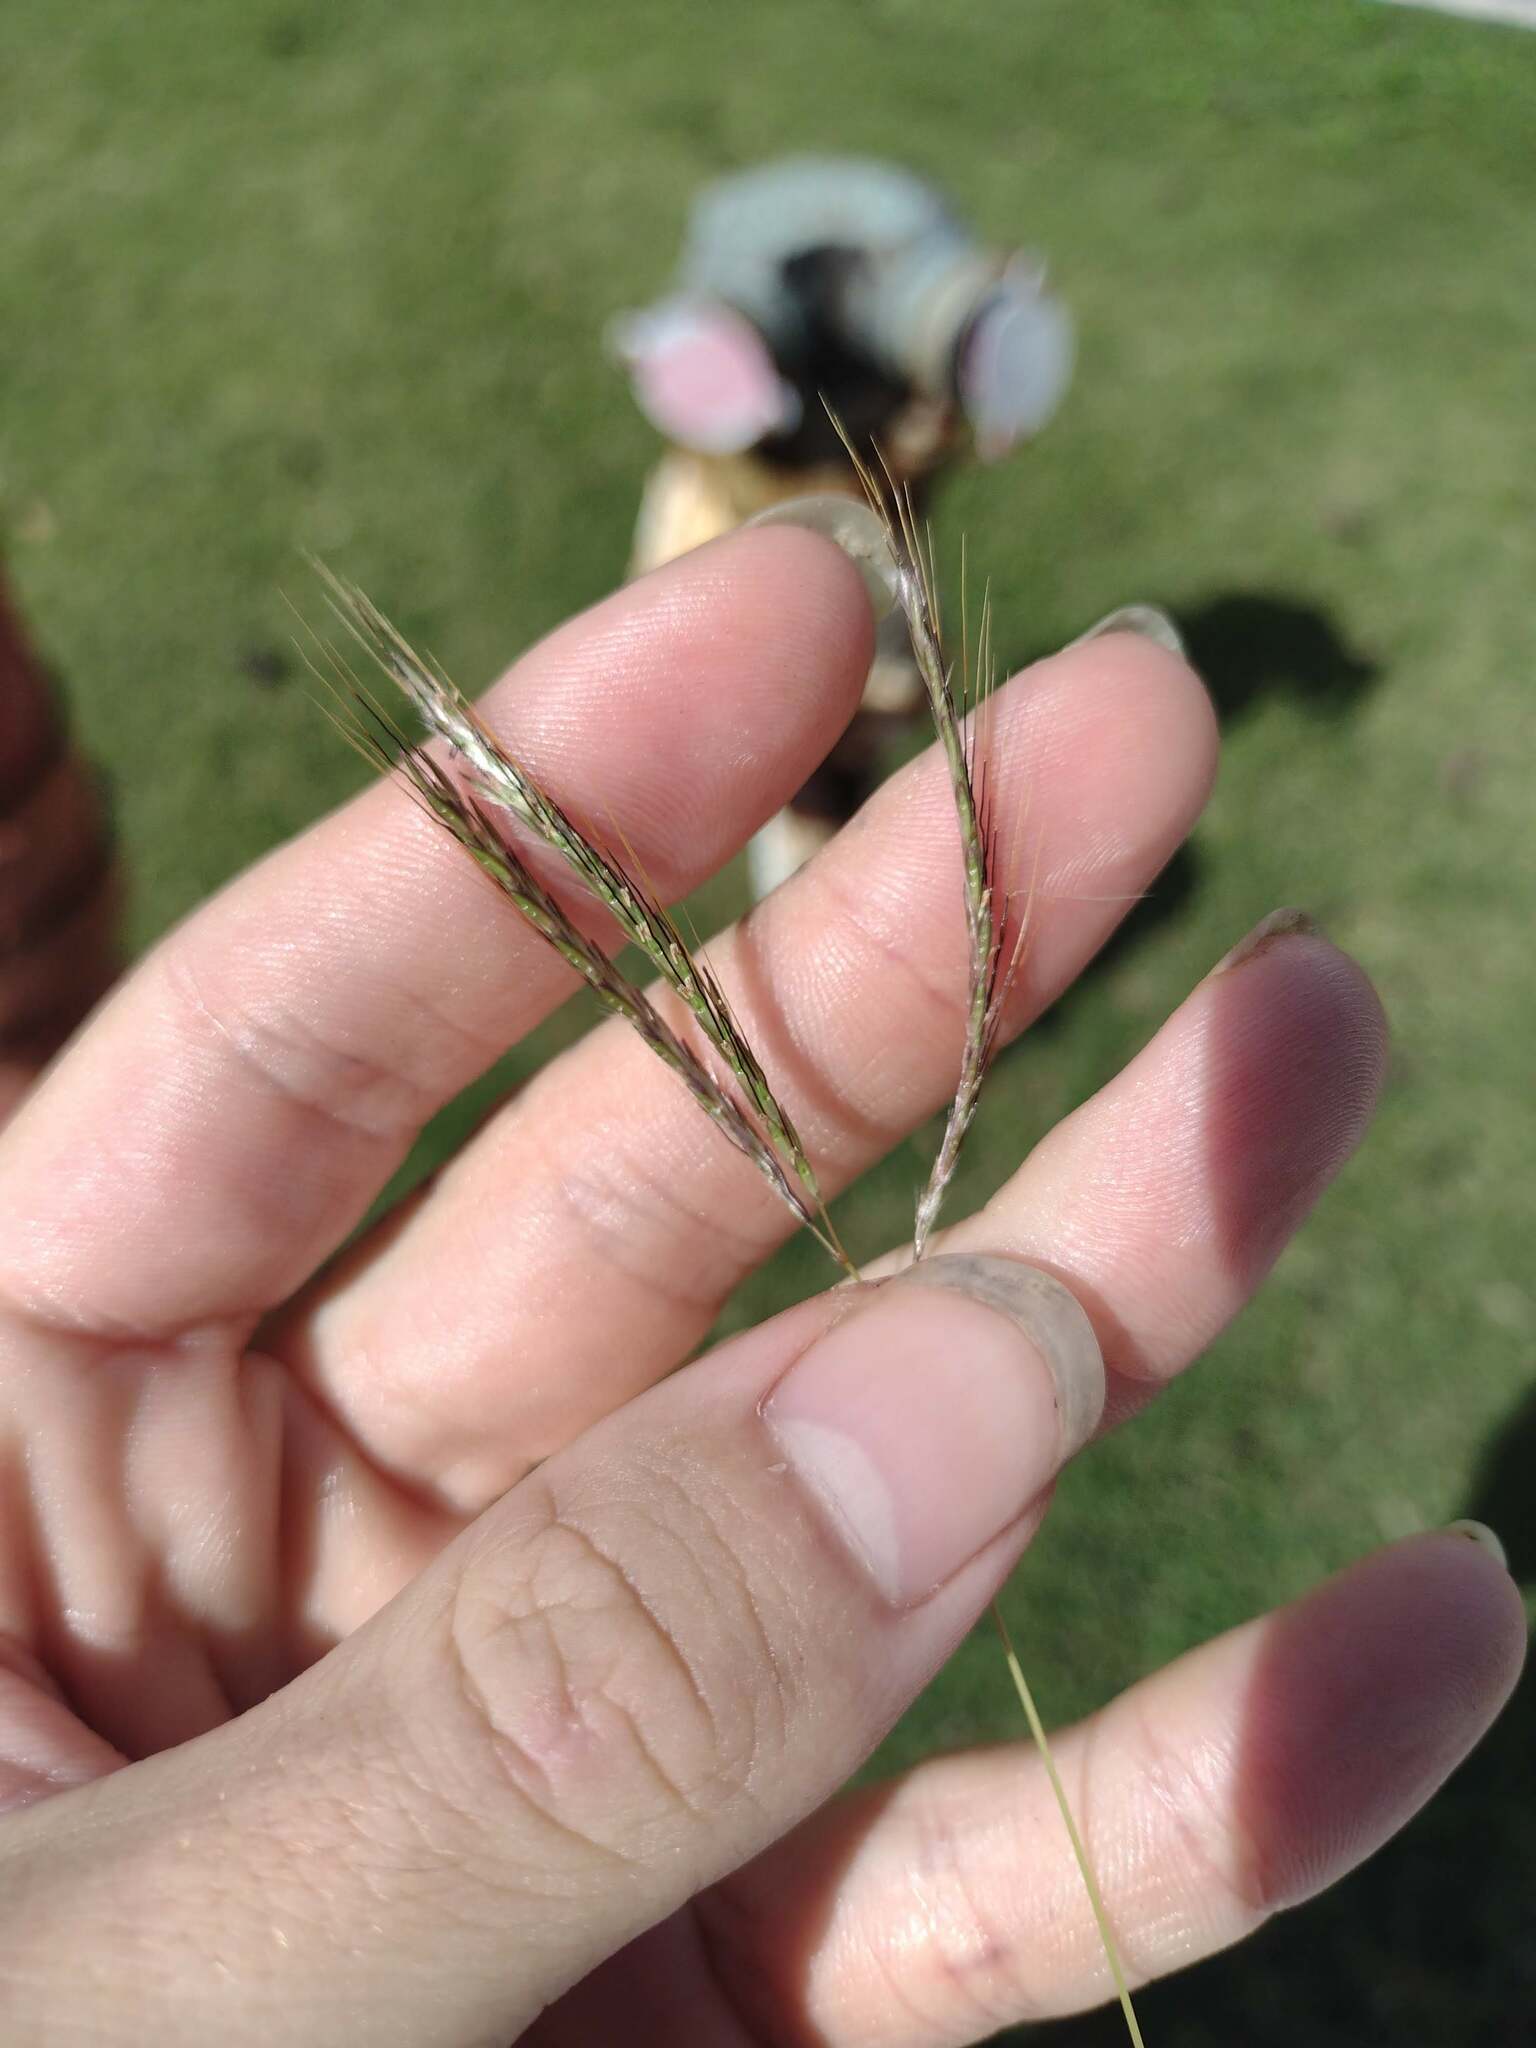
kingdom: Plantae
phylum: Tracheophyta
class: Liliopsida
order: Poales
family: Poaceae
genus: Bothriochloa
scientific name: Bothriochloa pertusa
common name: Pitted beardgrass
